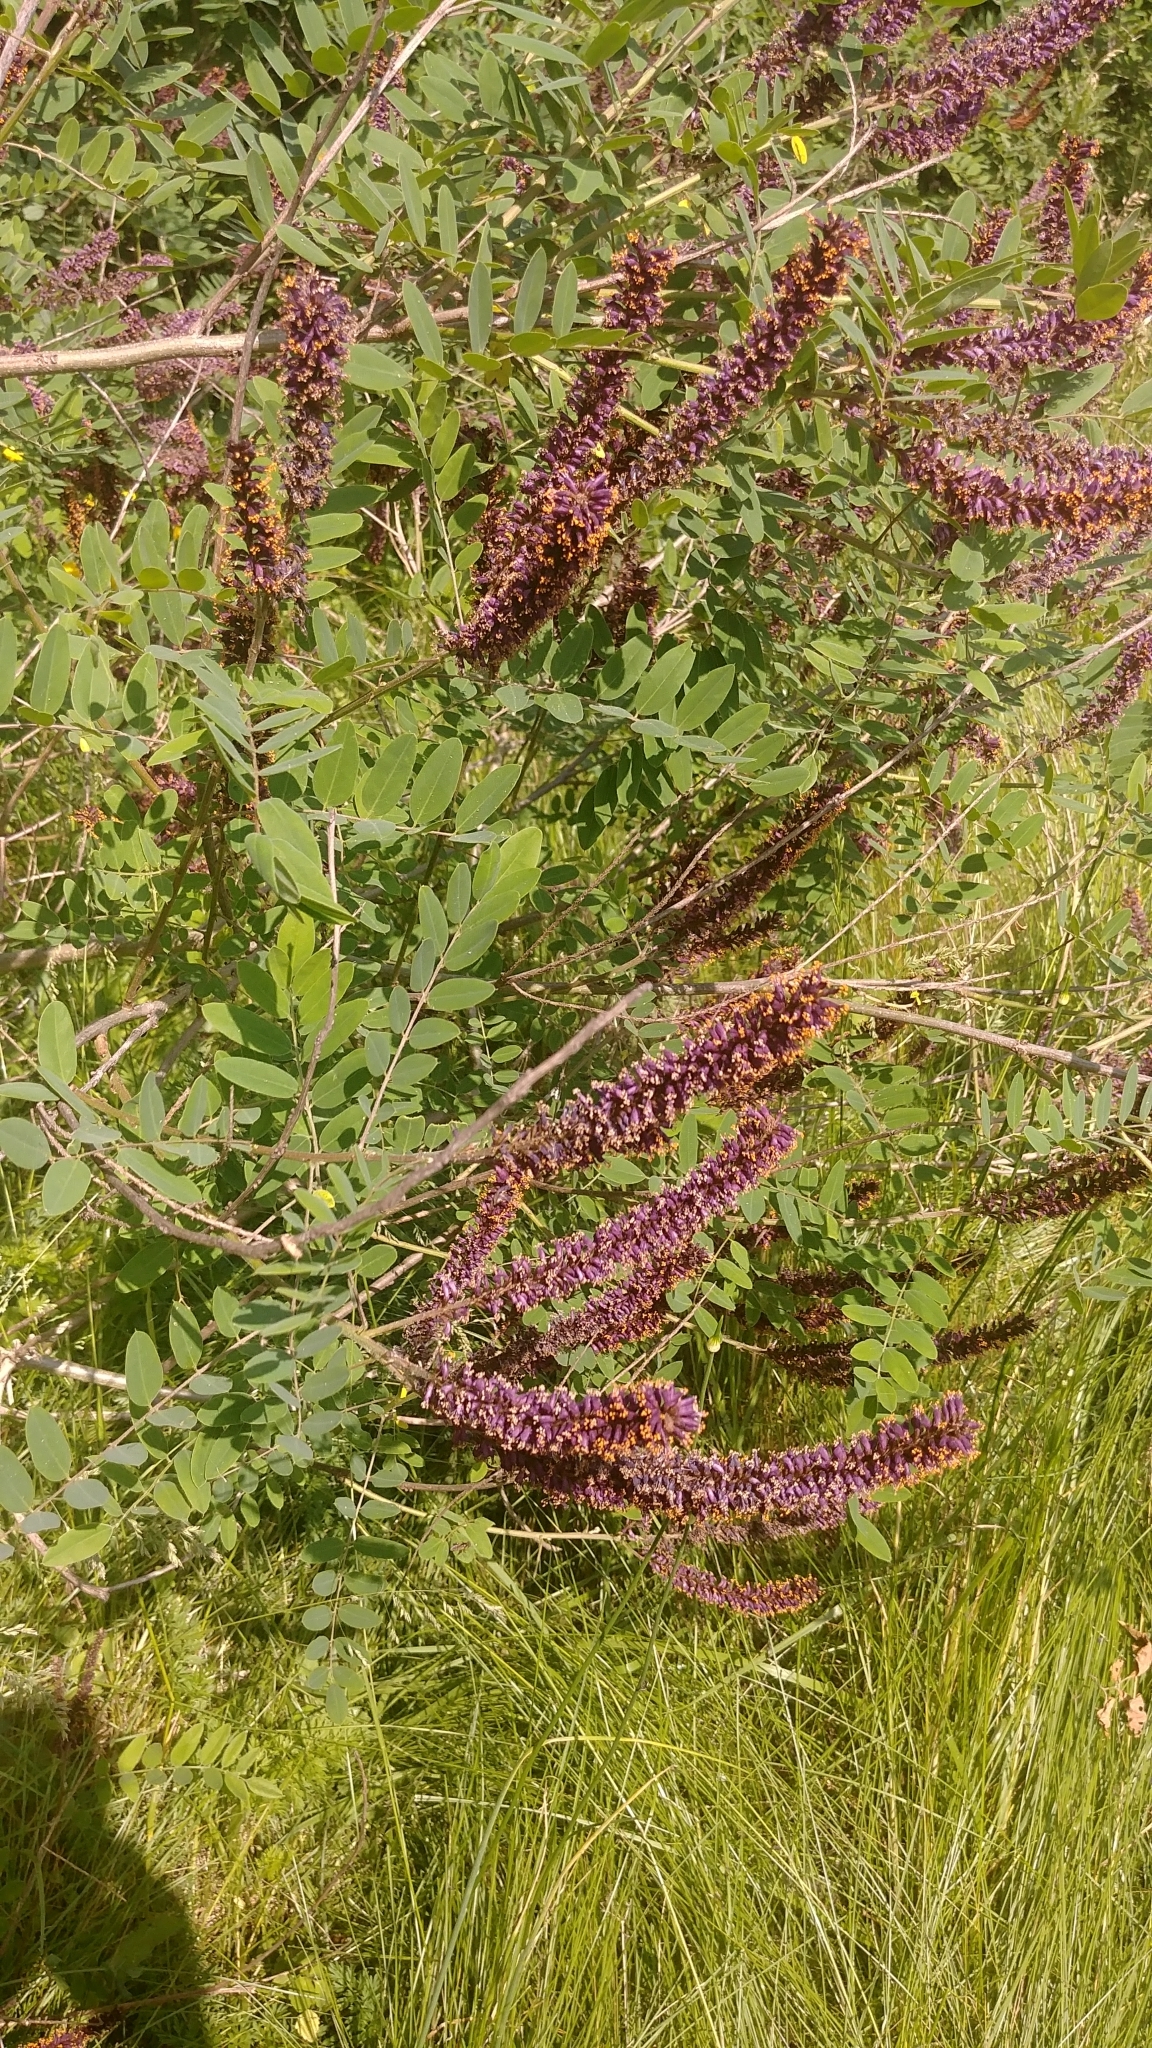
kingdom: Plantae
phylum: Tracheophyta
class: Magnoliopsida
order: Fabales
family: Fabaceae
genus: Amorpha
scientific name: Amorpha fruticosa
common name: False indigo
